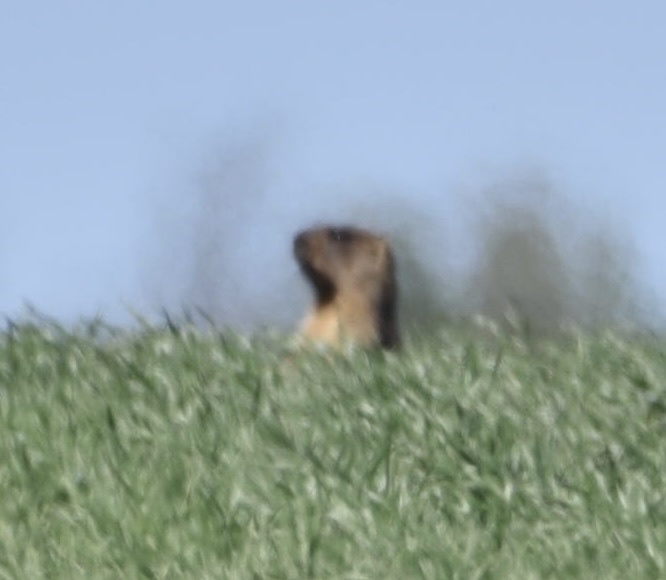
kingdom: Animalia
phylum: Chordata
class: Mammalia
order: Rodentia
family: Sciuridae
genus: Marmota
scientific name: Marmota bobak
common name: Bobak marmot
